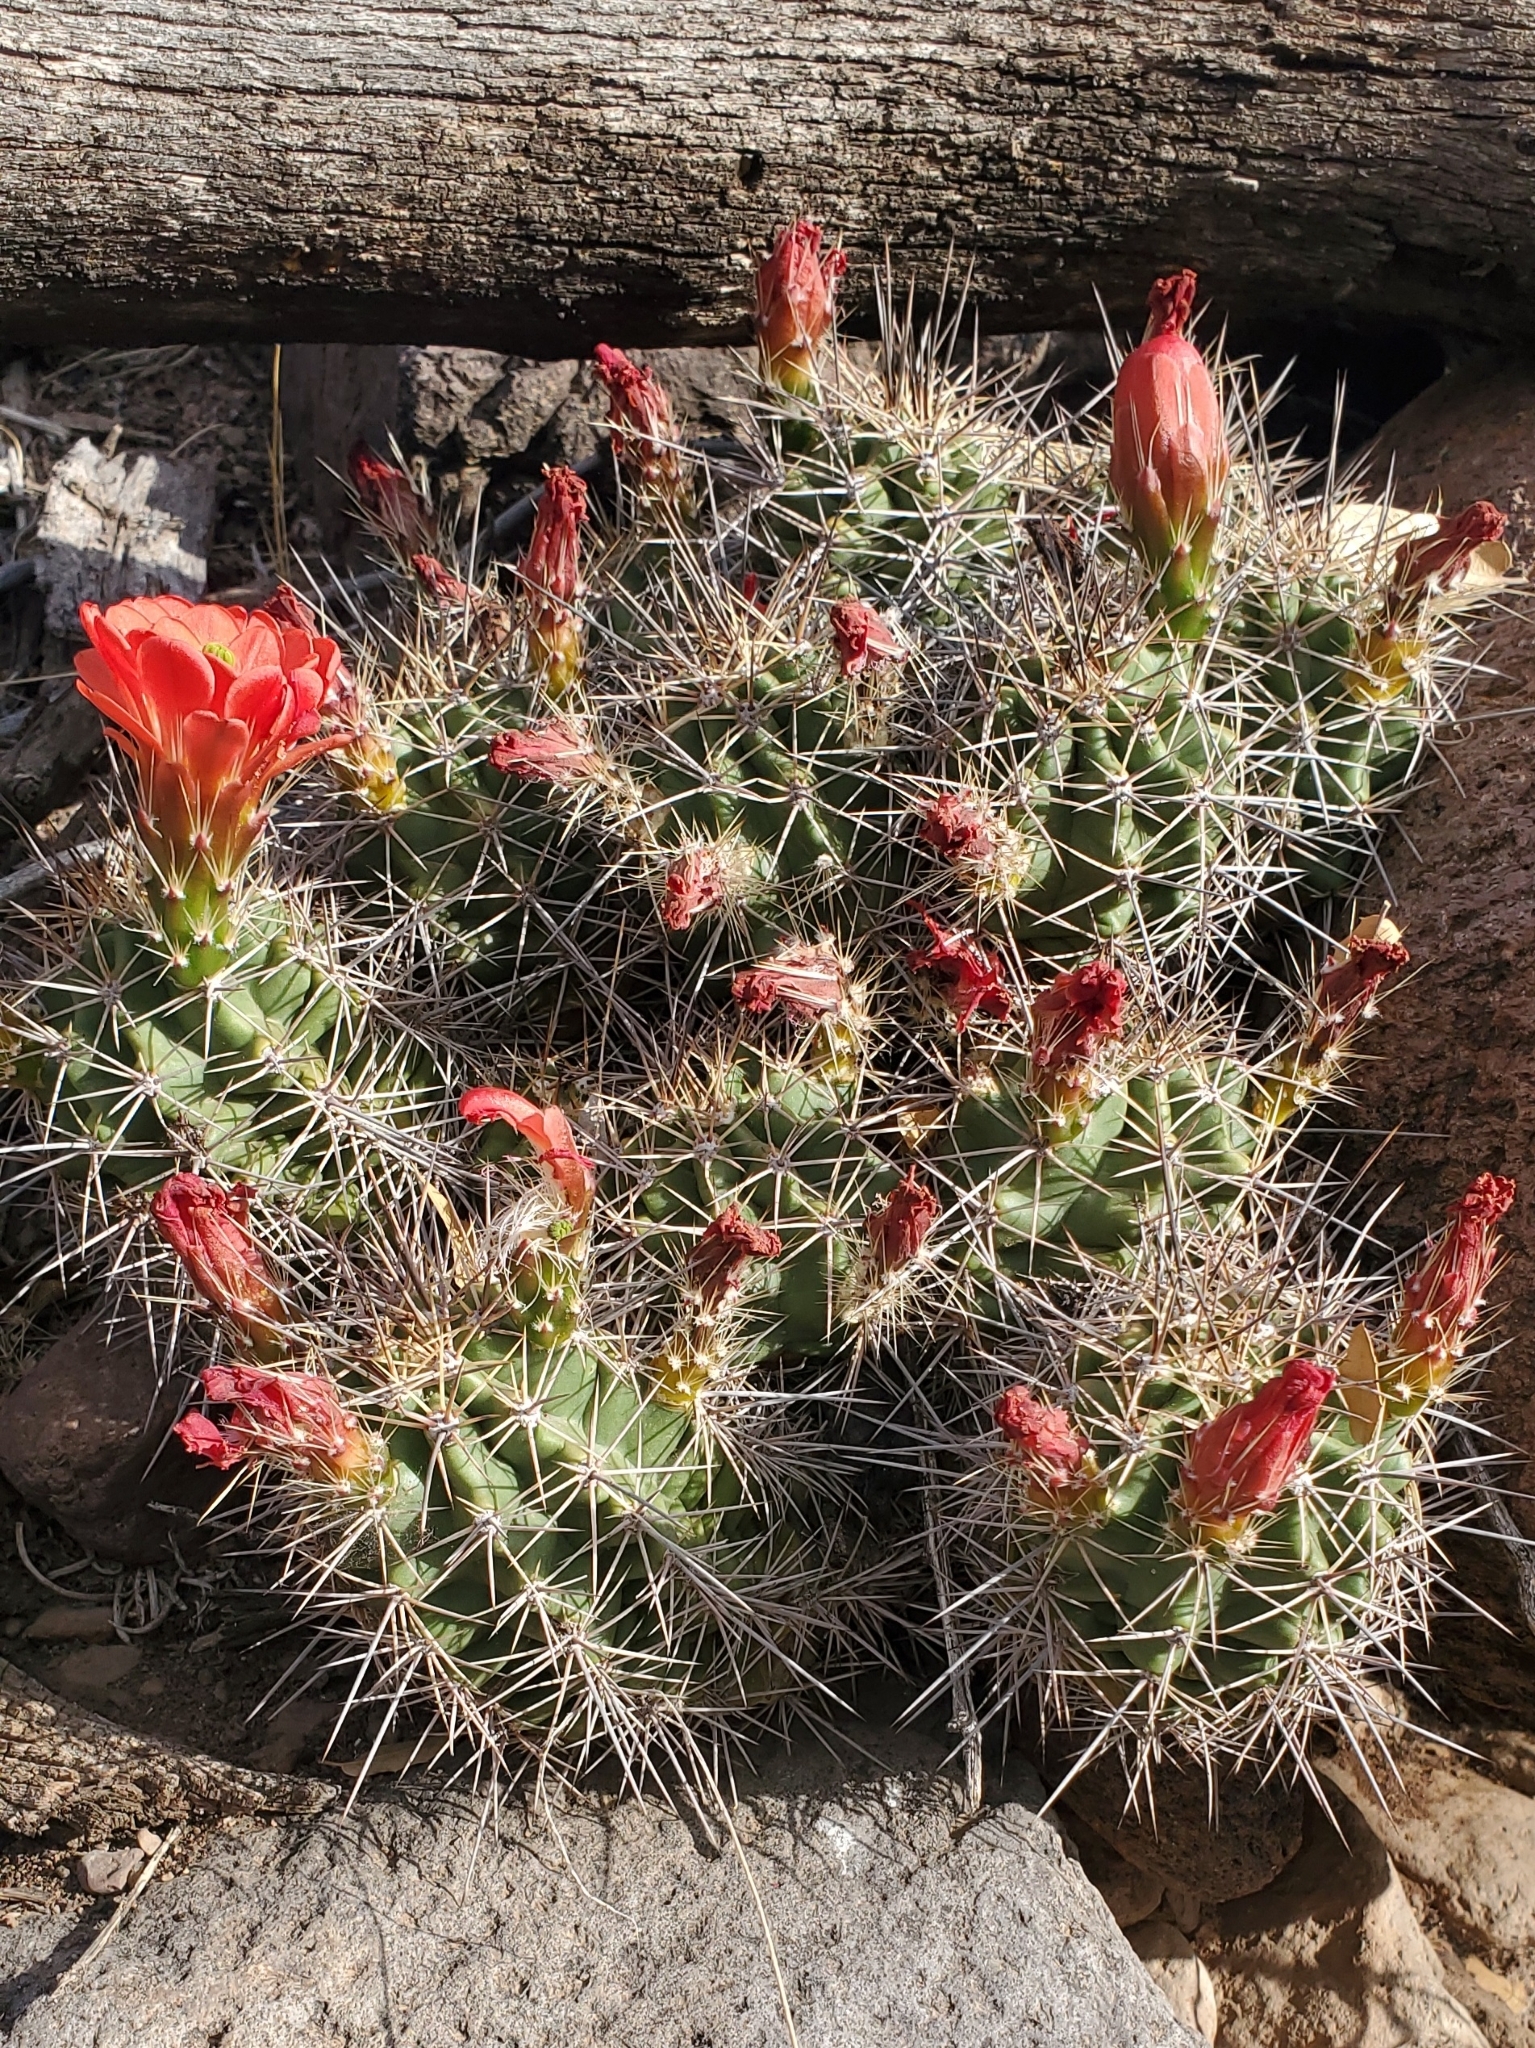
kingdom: Plantae
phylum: Tracheophyta
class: Magnoliopsida
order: Caryophyllales
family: Cactaceae
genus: Echinocereus
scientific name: Echinocereus coccineus
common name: Scarlet hedgehog cactus
